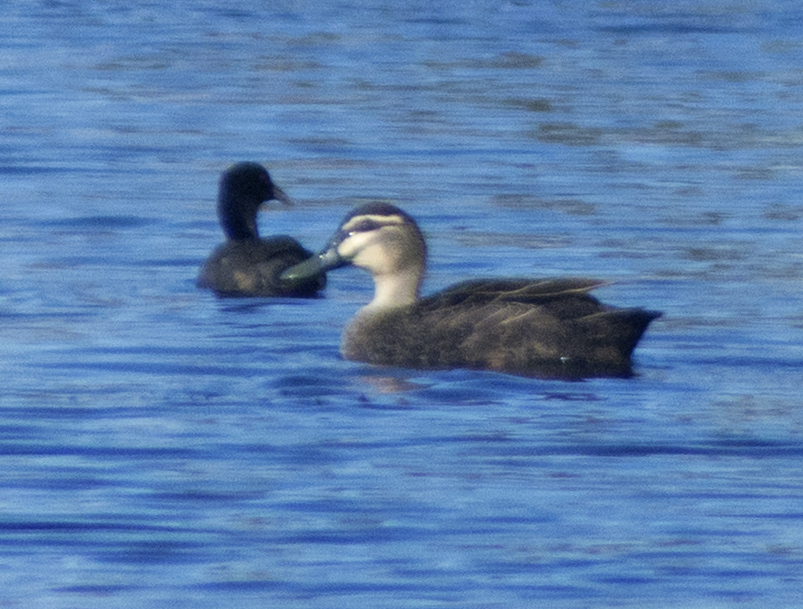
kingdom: Animalia
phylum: Chordata
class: Aves
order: Anseriformes
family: Anatidae
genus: Anas
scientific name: Anas superciliosa
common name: Pacific black duck
